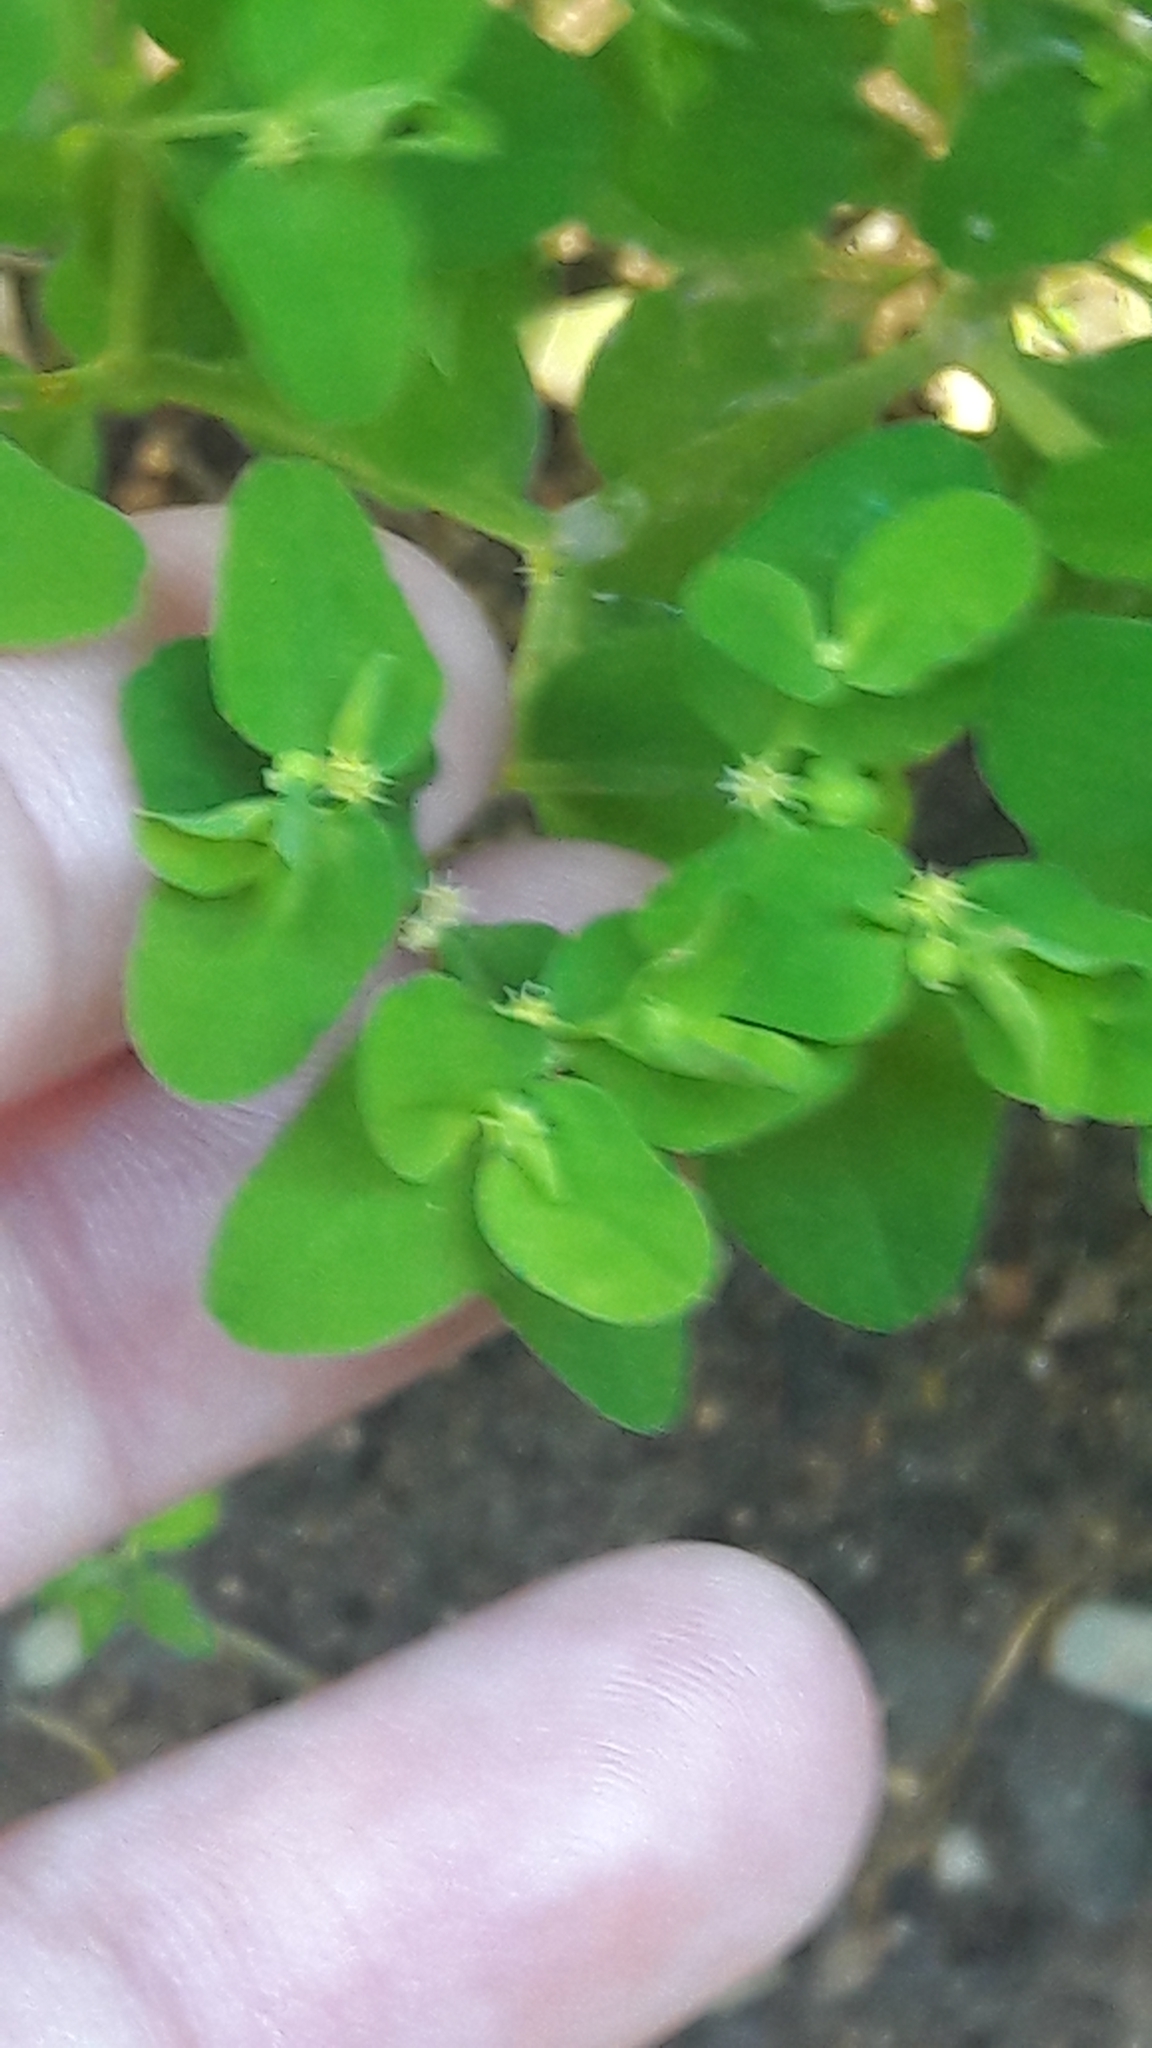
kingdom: Plantae
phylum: Tracheophyta
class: Magnoliopsida
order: Malpighiales
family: Euphorbiaceae
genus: Euphorbia
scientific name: Euphorbia peplus
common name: Petty spurge
